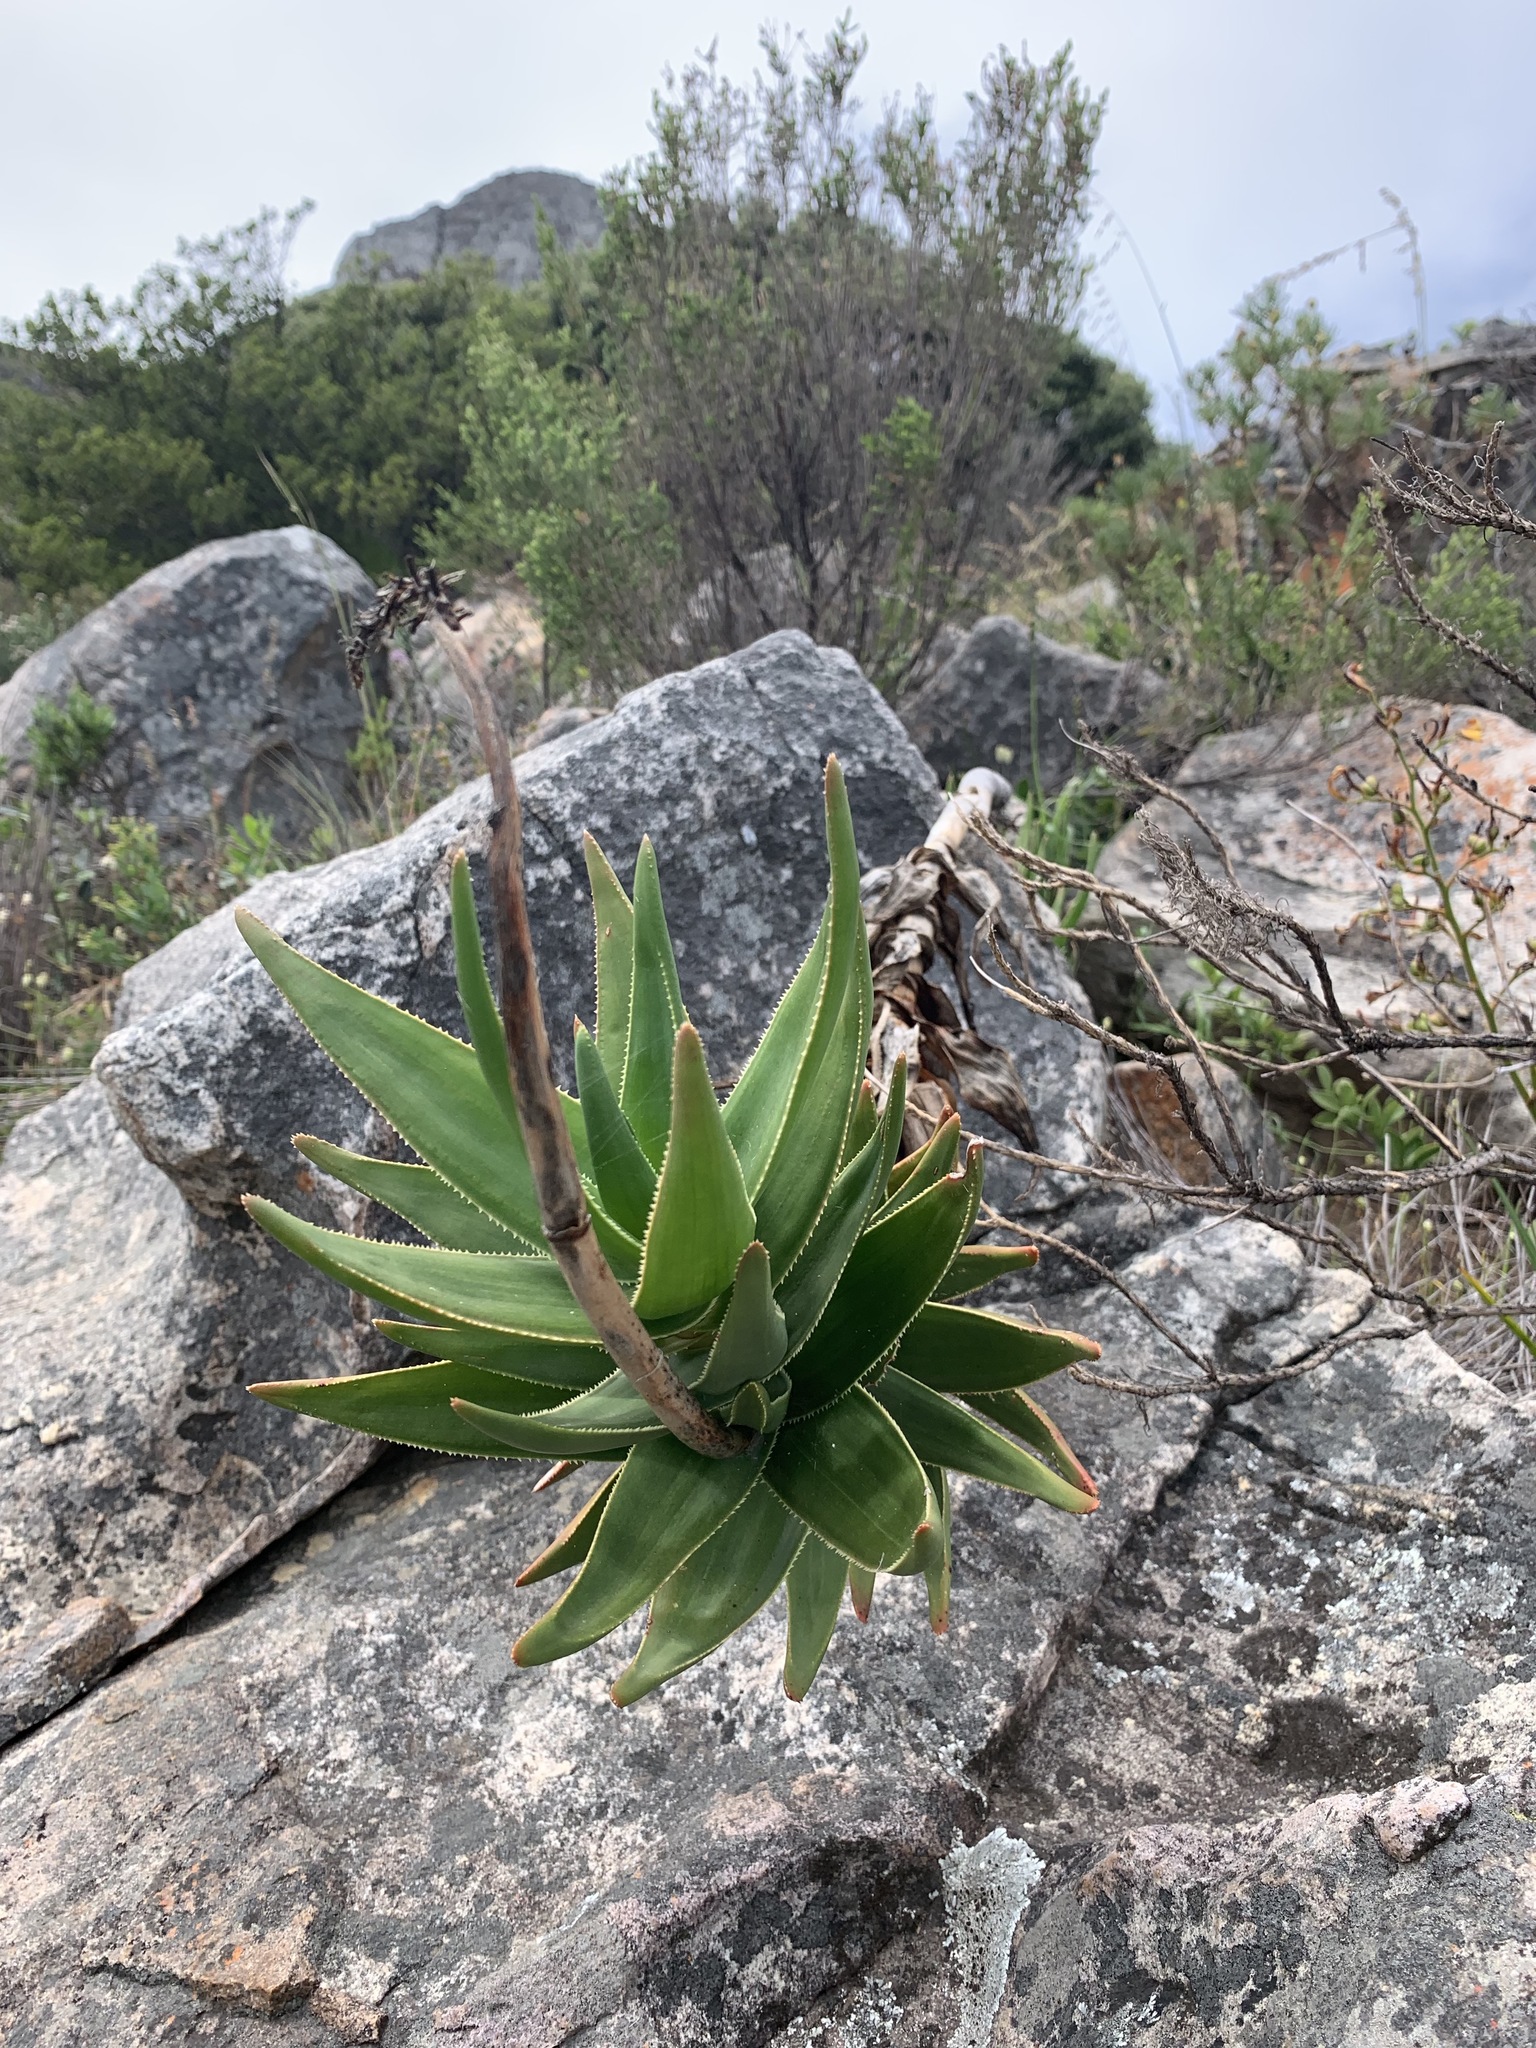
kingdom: Plantae
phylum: Tracheophyta
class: Liliopsida
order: Asparagales
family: Asphodelaceae
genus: Aloiampelos
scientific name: Aloiampelos commixta
